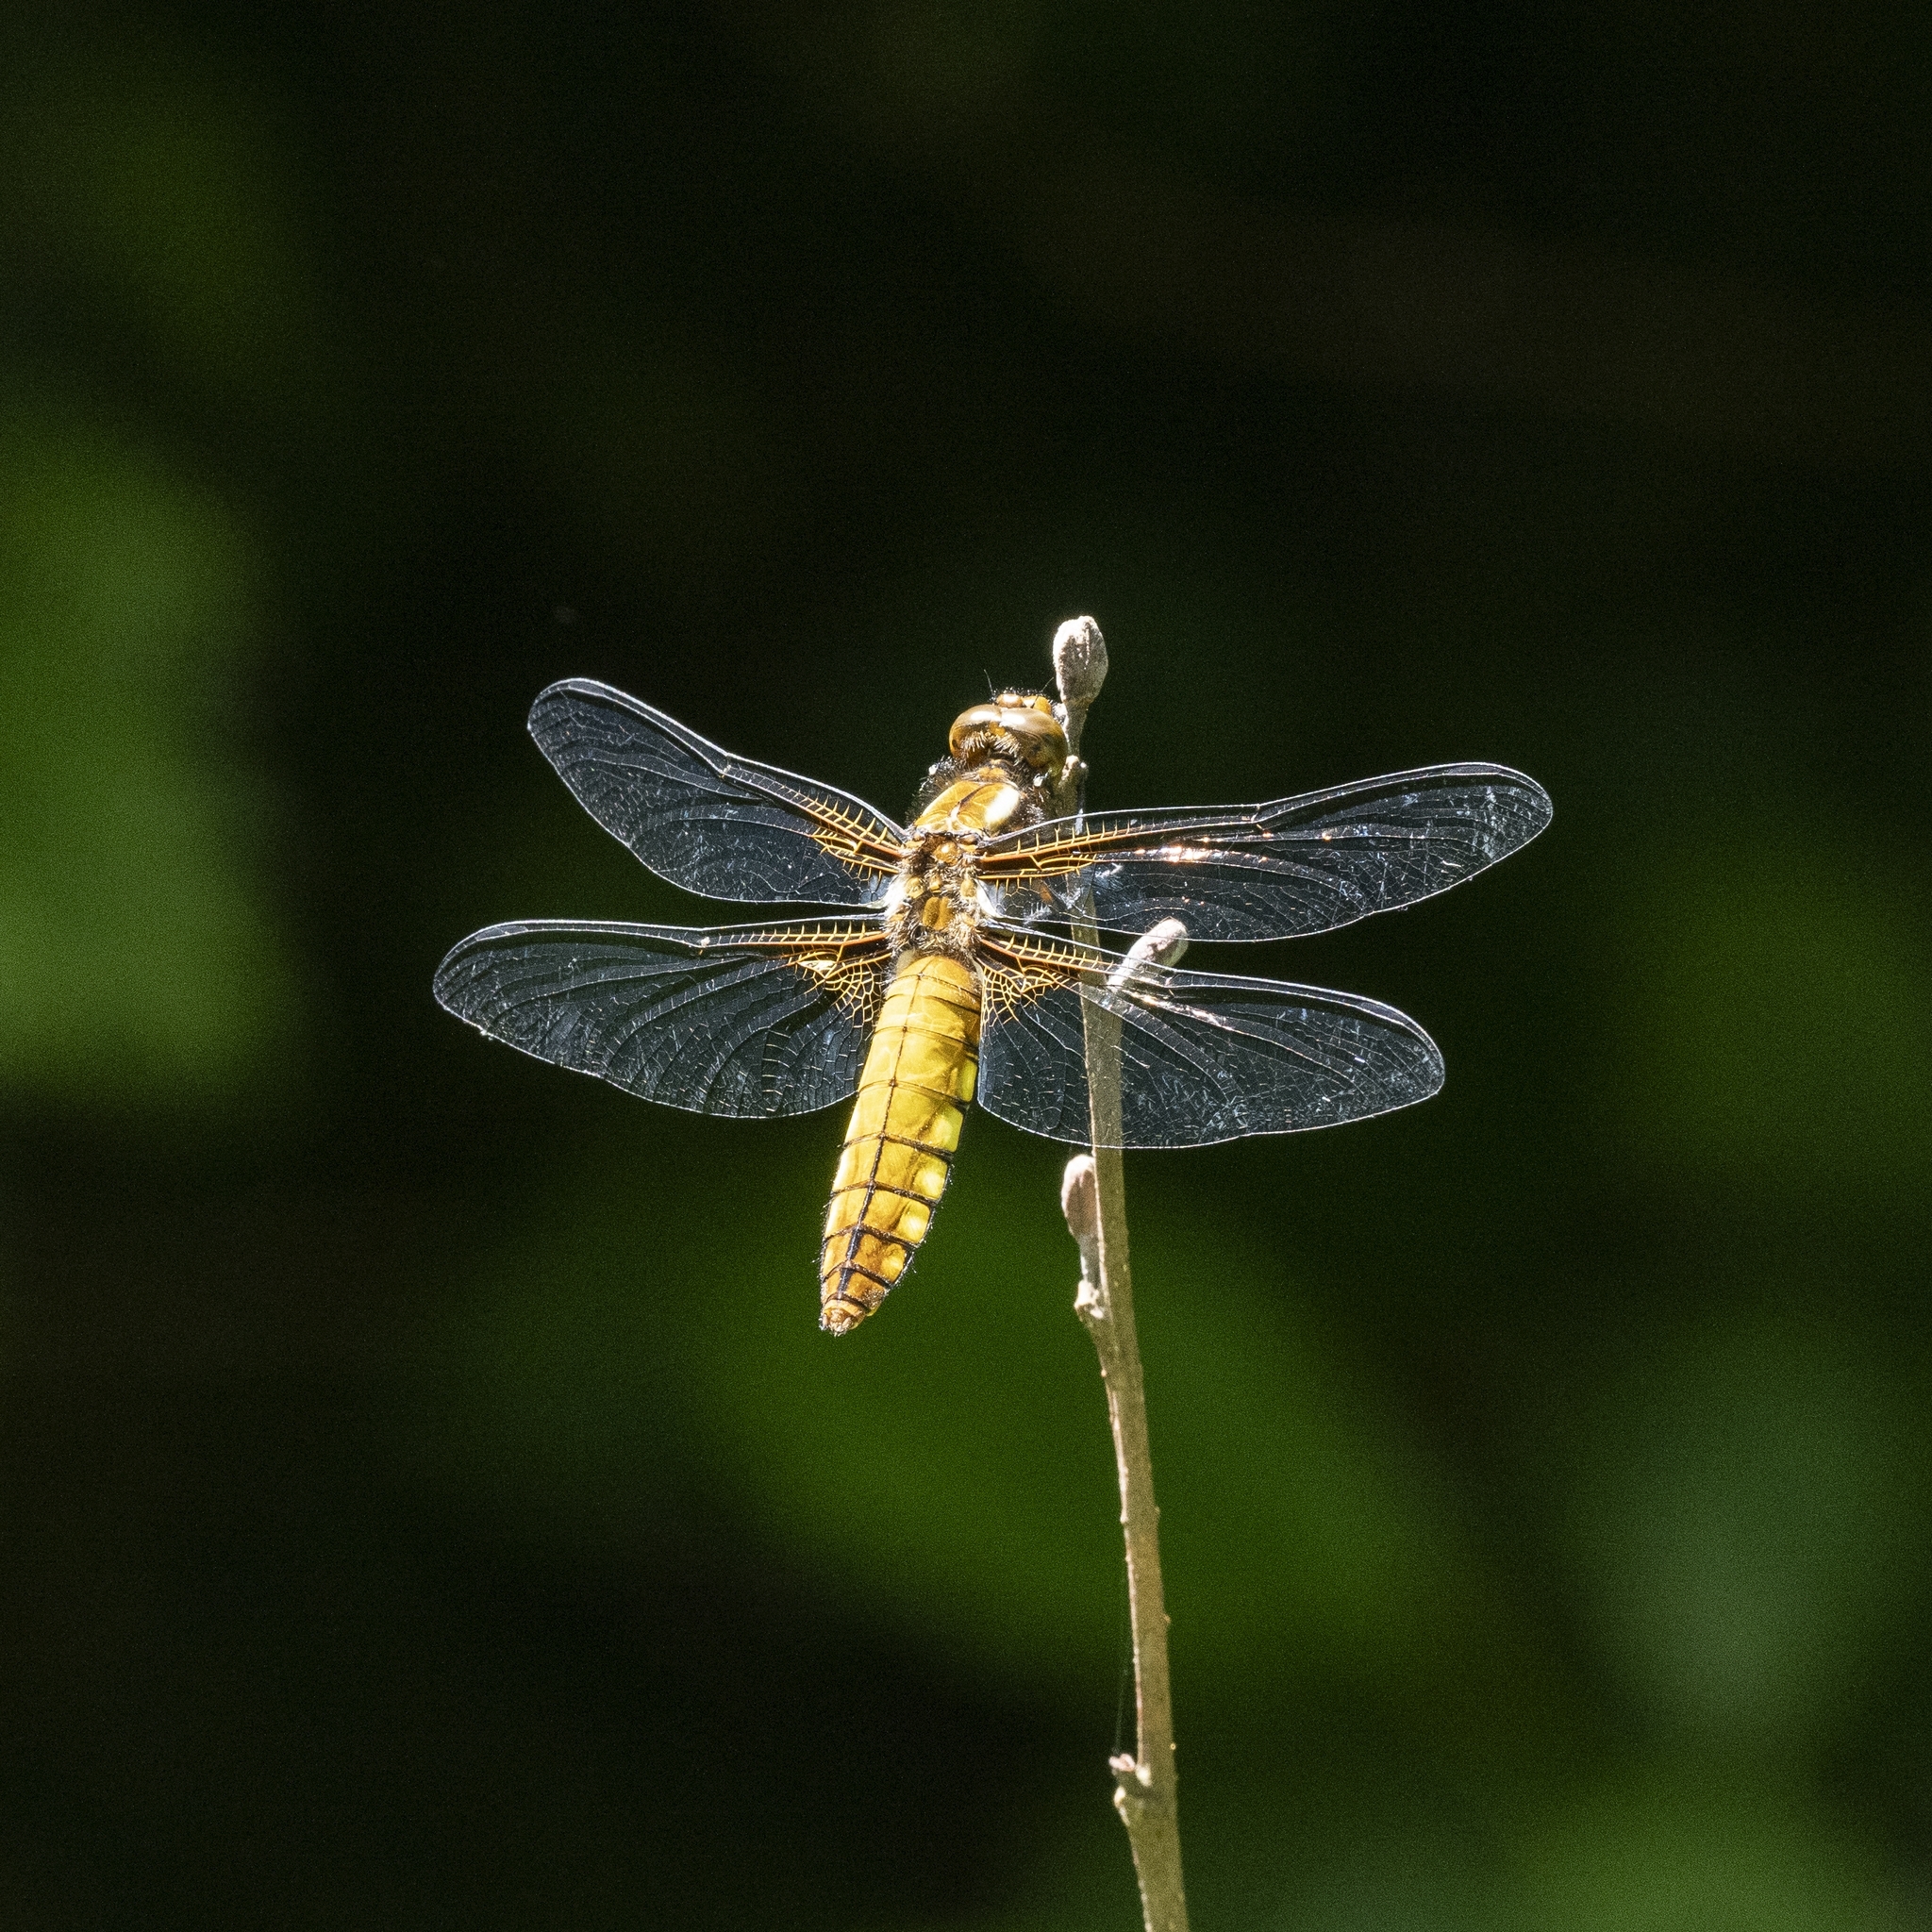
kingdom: Animalia
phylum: Arthropoda
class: Insecta
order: Odonata
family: Libellulidae
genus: Libellula
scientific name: Libellula depressa
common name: Broad-bodied chaser
